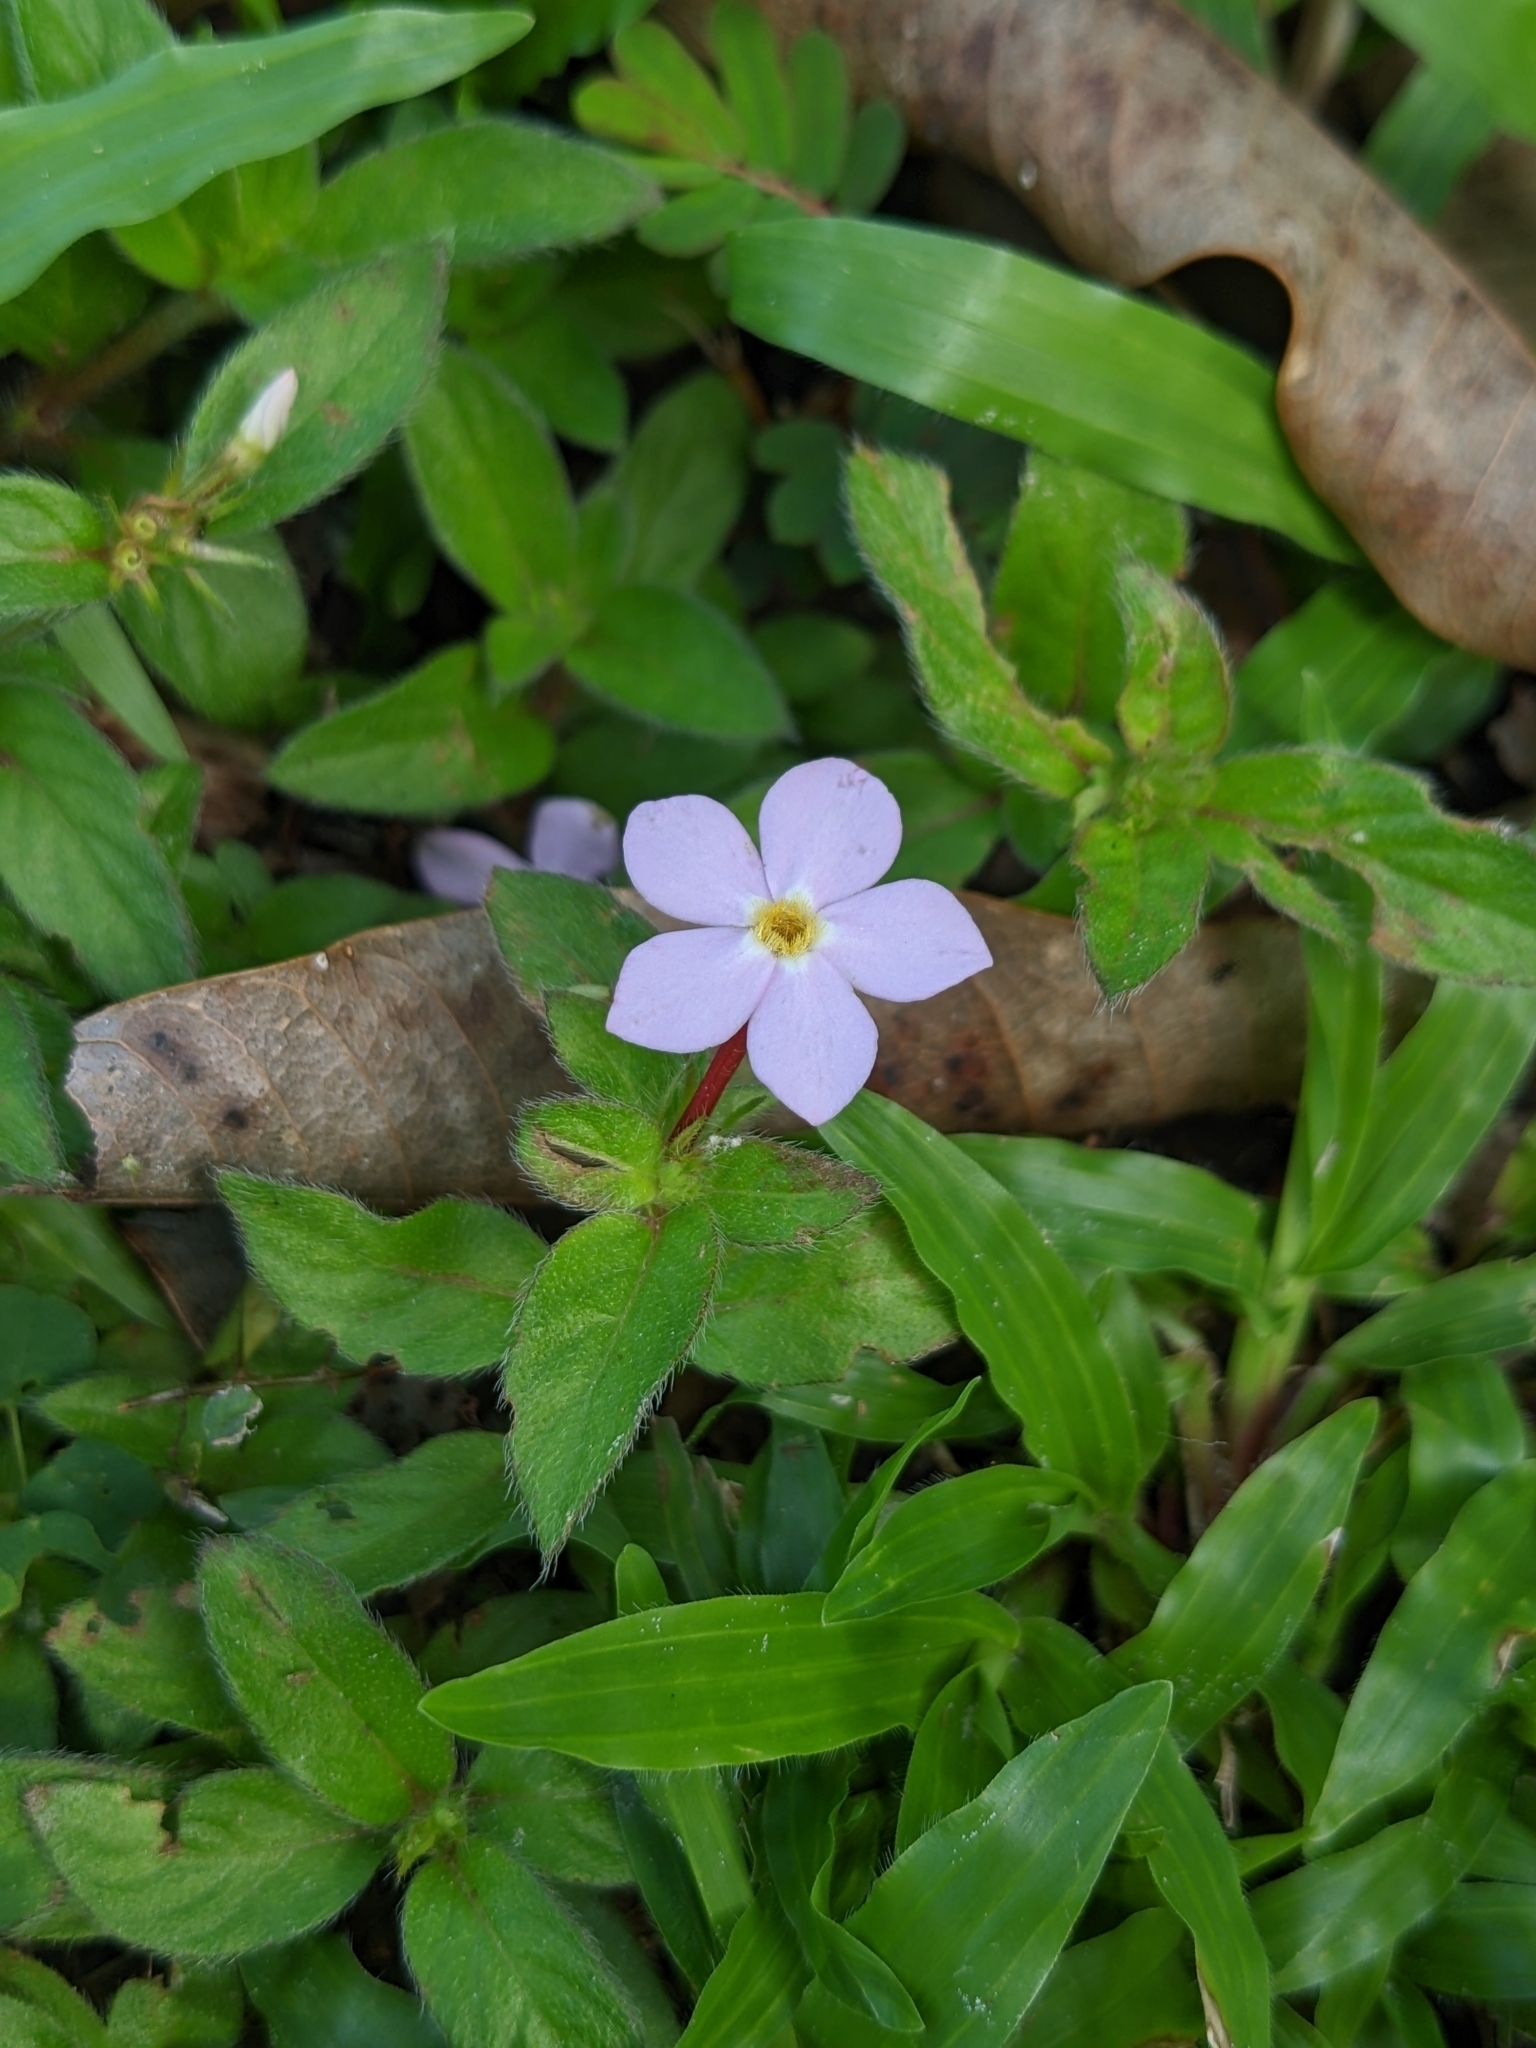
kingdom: Plantae
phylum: Tracheophyta
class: Magnoliopsida
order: Gentianales
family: Rubiaceae
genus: Sipanea
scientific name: Sipanea pratensis
